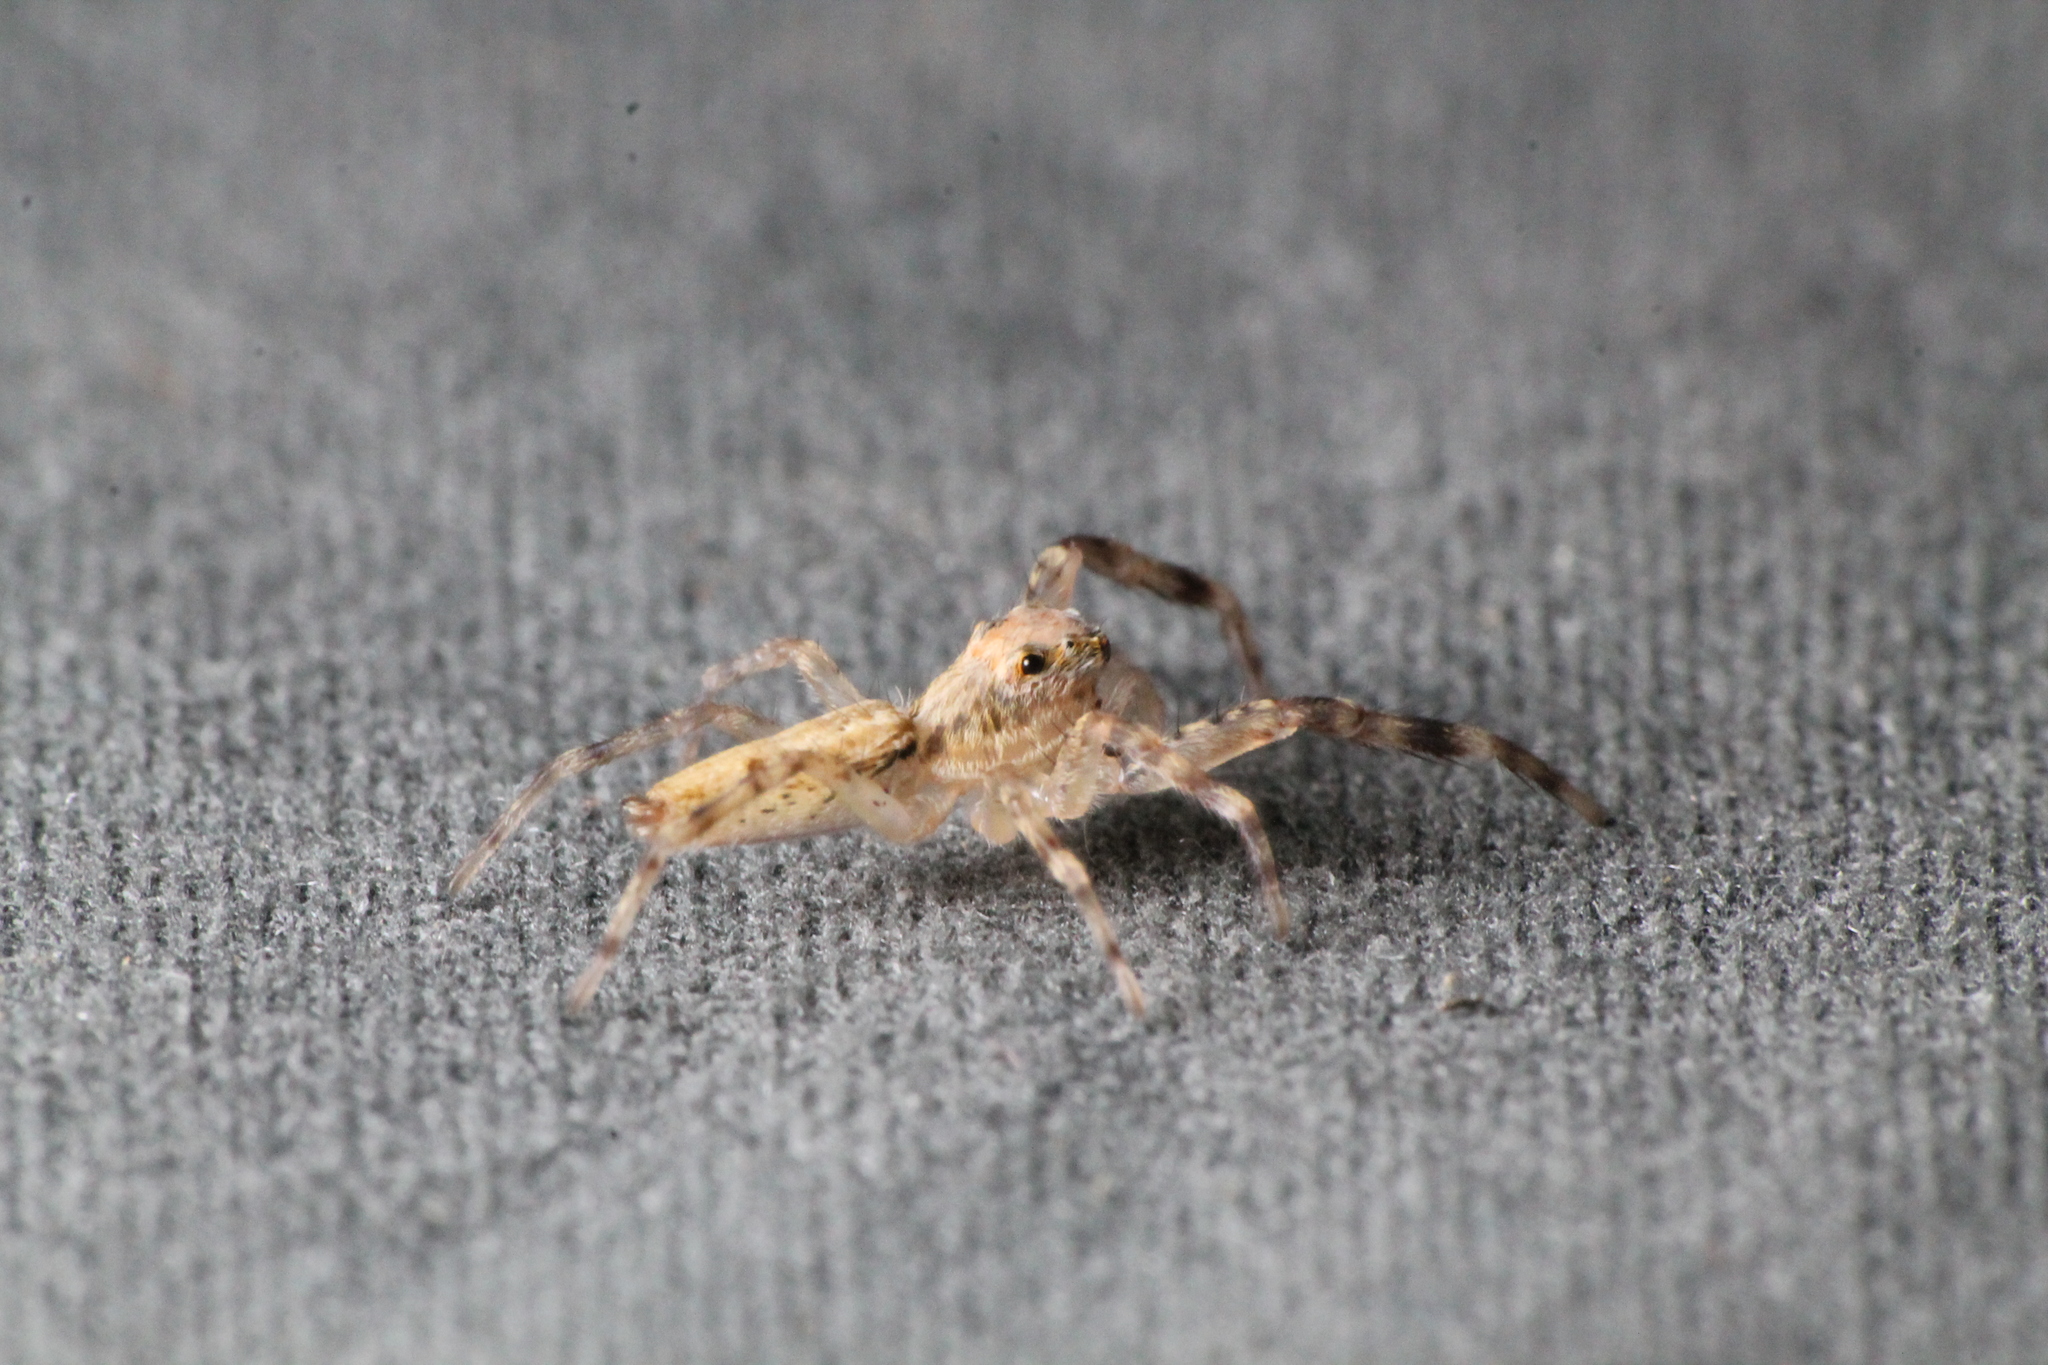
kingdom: Animalia
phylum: Arthropoda
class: Arachnida
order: Araneae
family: Salticidae
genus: Helpis
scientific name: Helpis minitabunda
